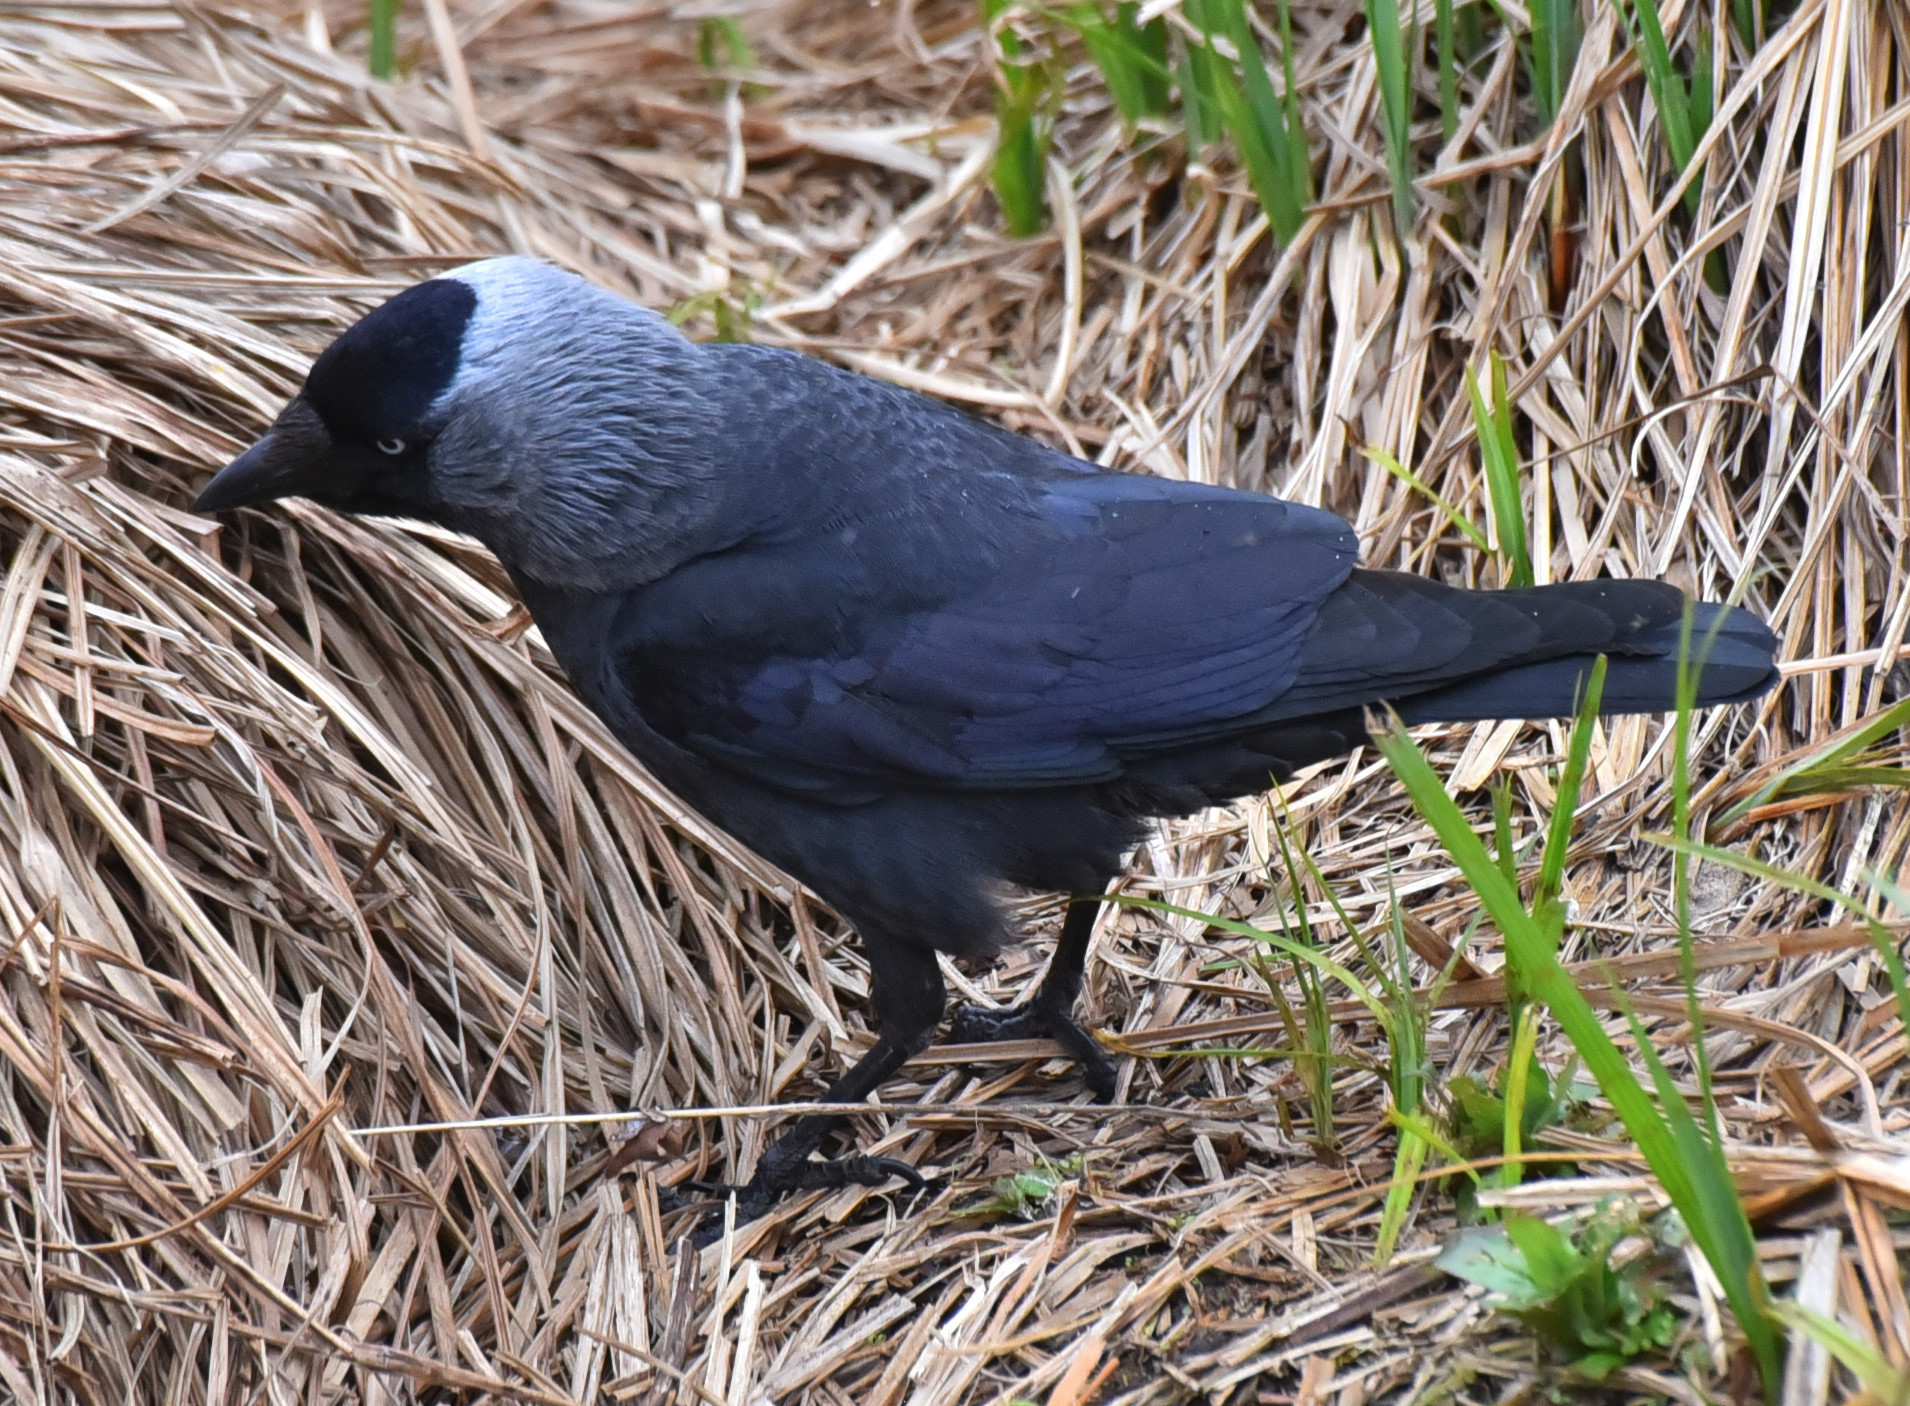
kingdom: Animalia
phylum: Chordata
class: Aves
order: Passeriformes
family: Corvidae
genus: Coloeus
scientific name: Coloeus monedula
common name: Western jackdaw
